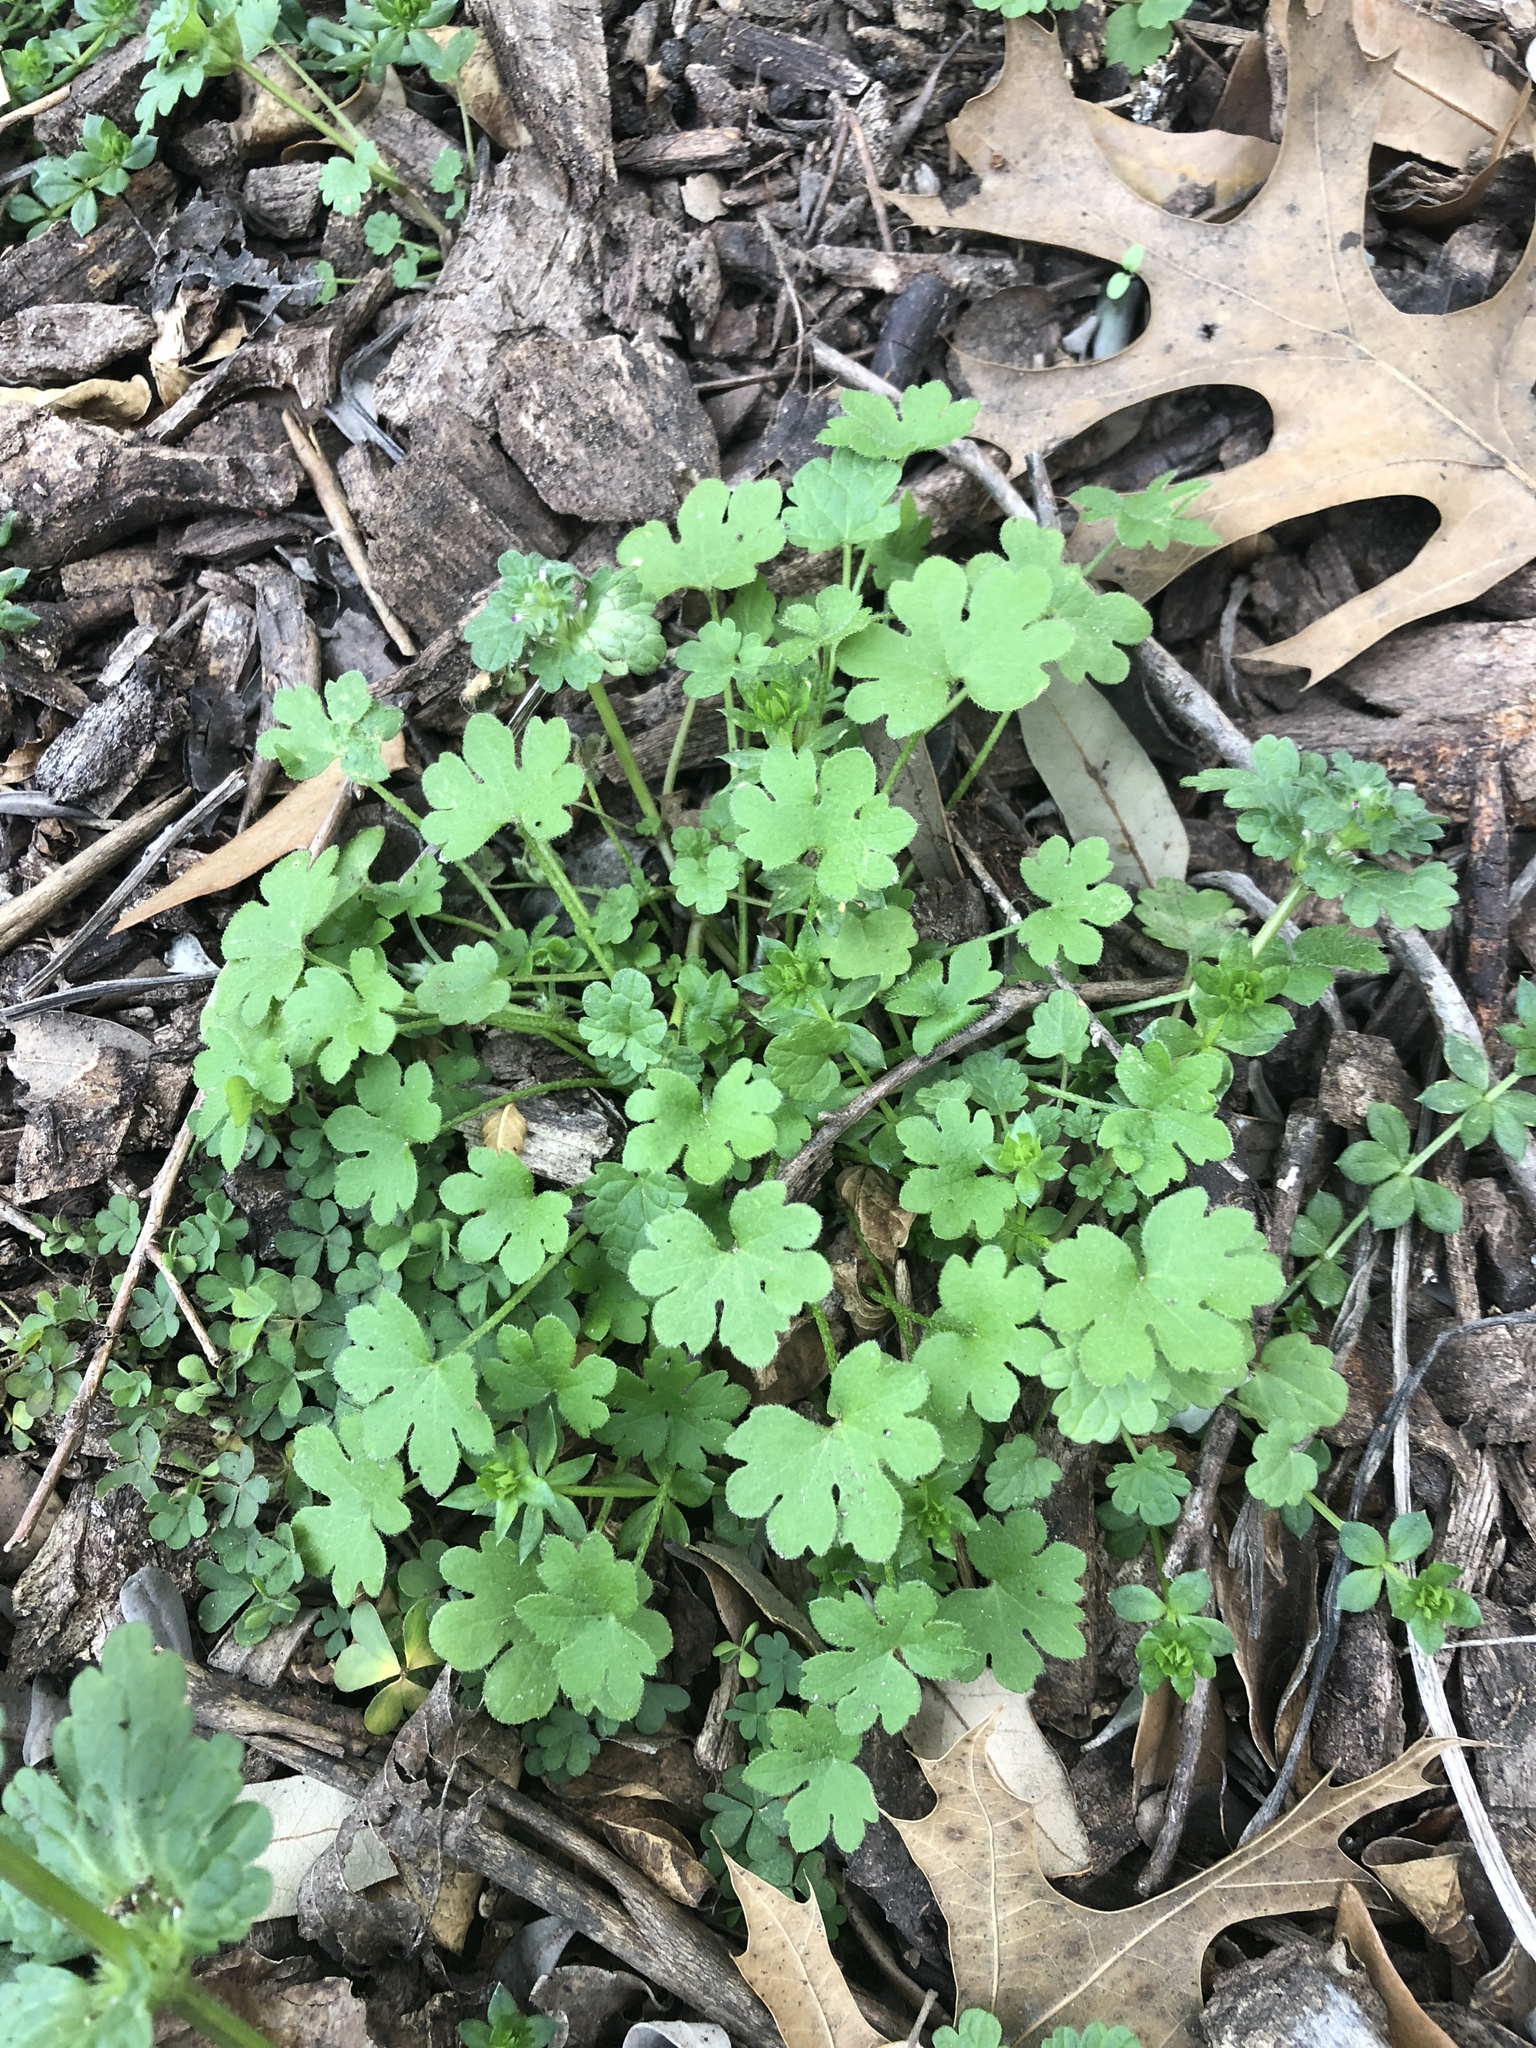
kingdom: Plantae
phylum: Tracheophyta
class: Magnoliopsida
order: Apiales
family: Apiaceae
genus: Bowlesia
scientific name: Bowlesia incana
